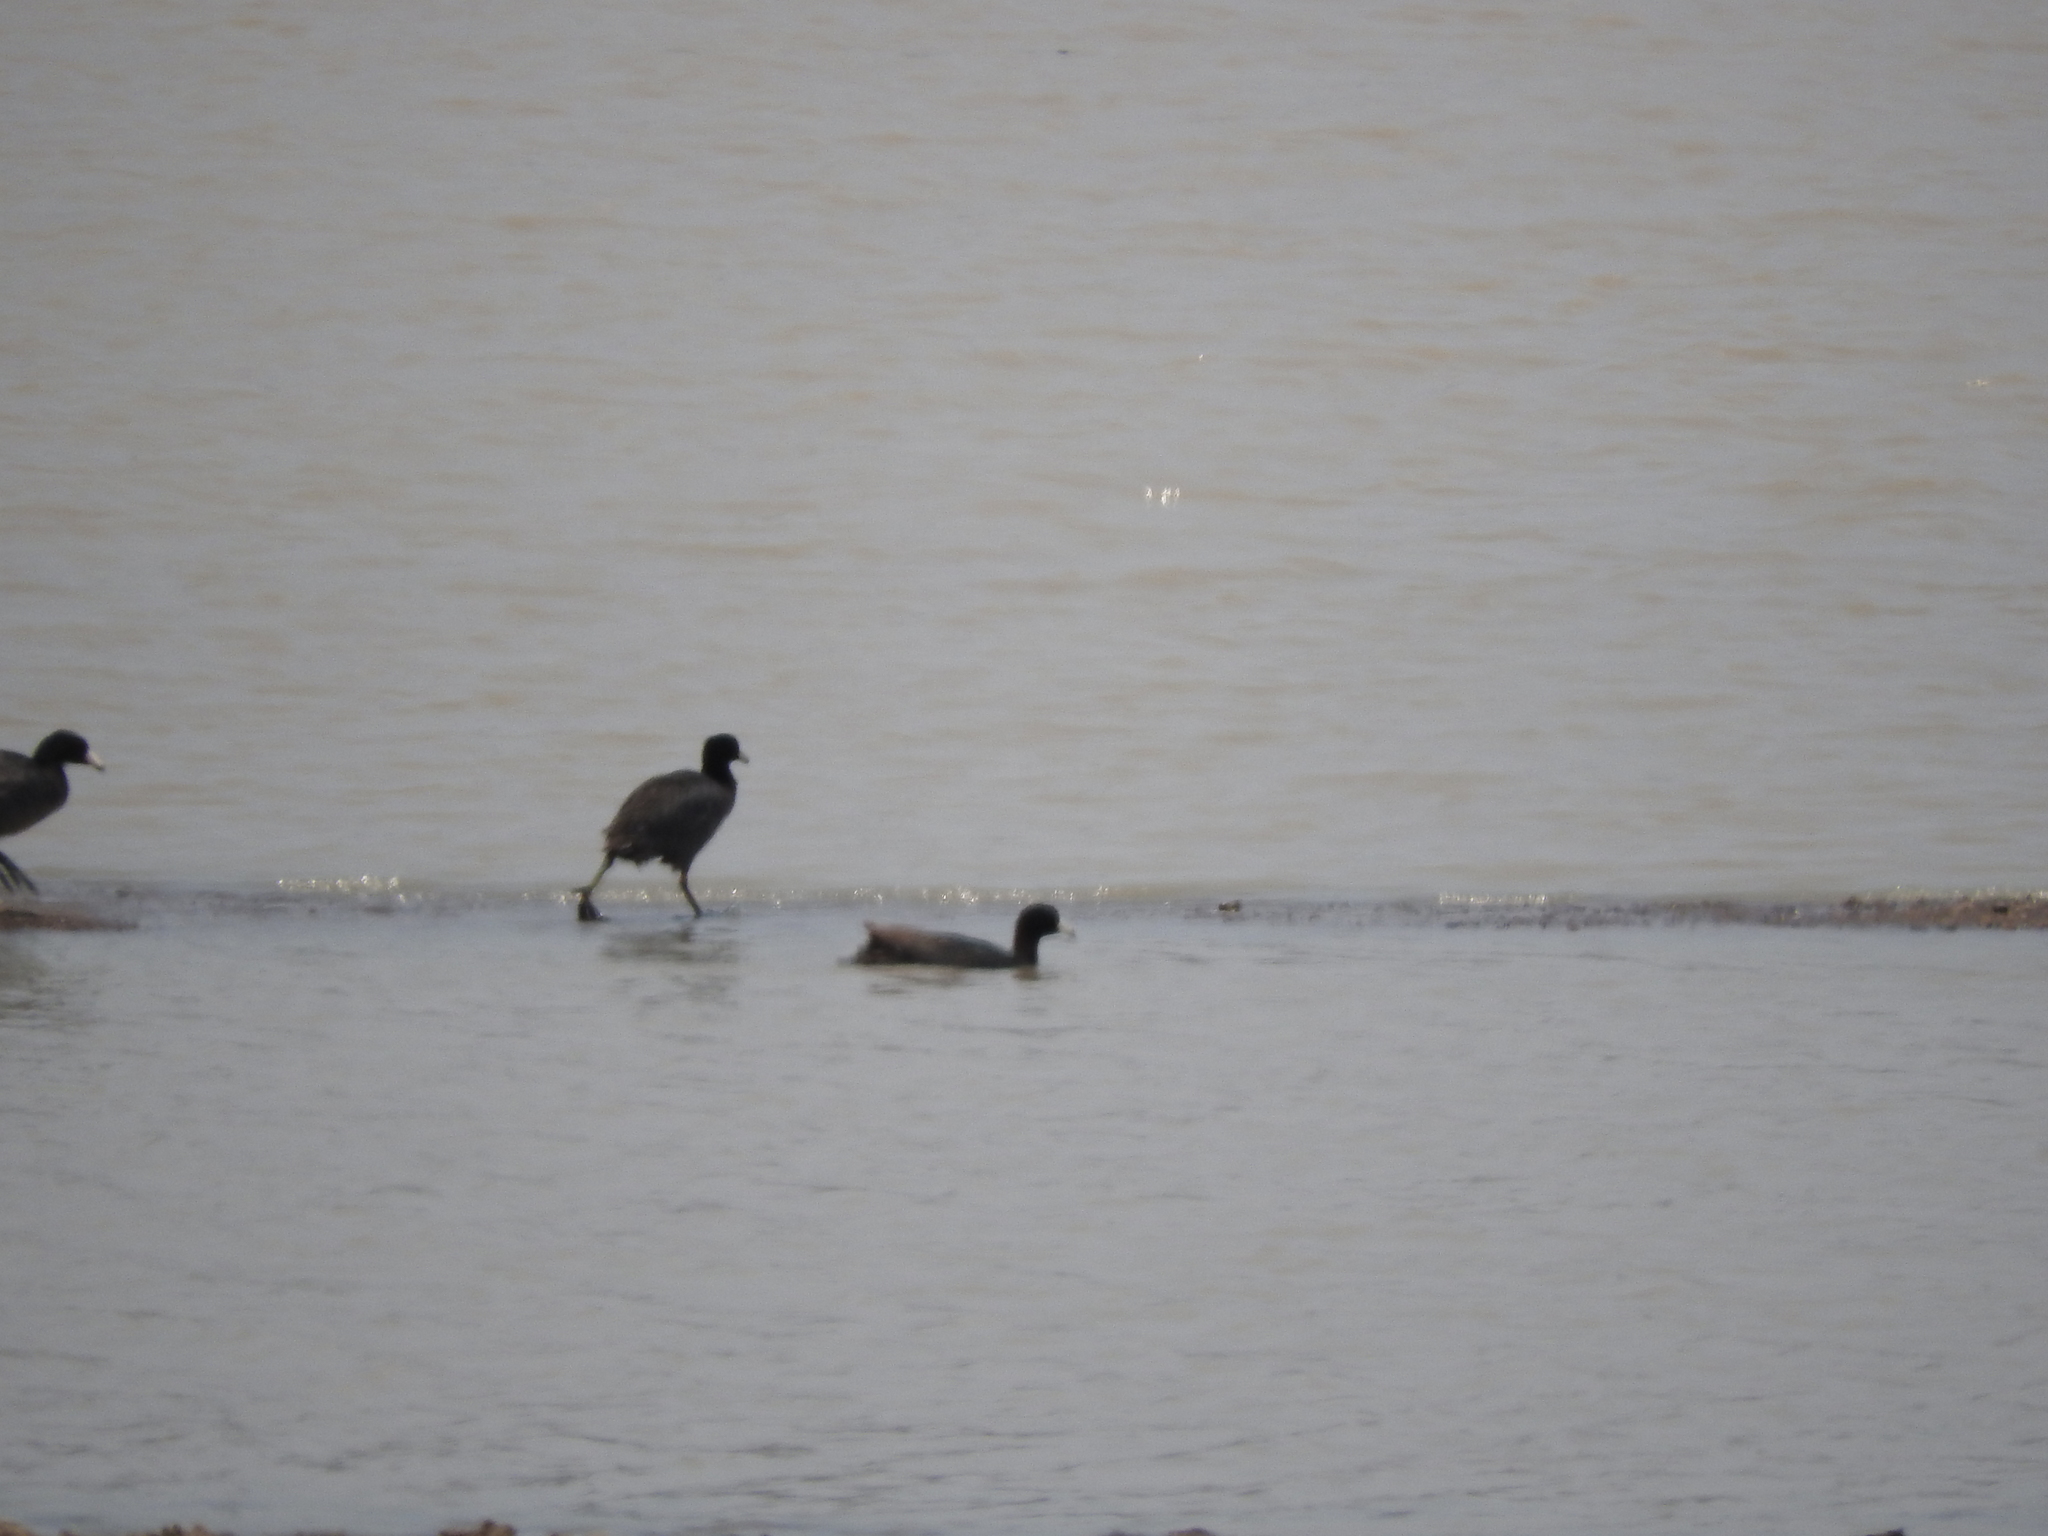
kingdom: Animalia
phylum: Chordata
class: Aves
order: Gruiformes
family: Rallidae
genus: Fulica
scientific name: Fulica americana
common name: American coot
